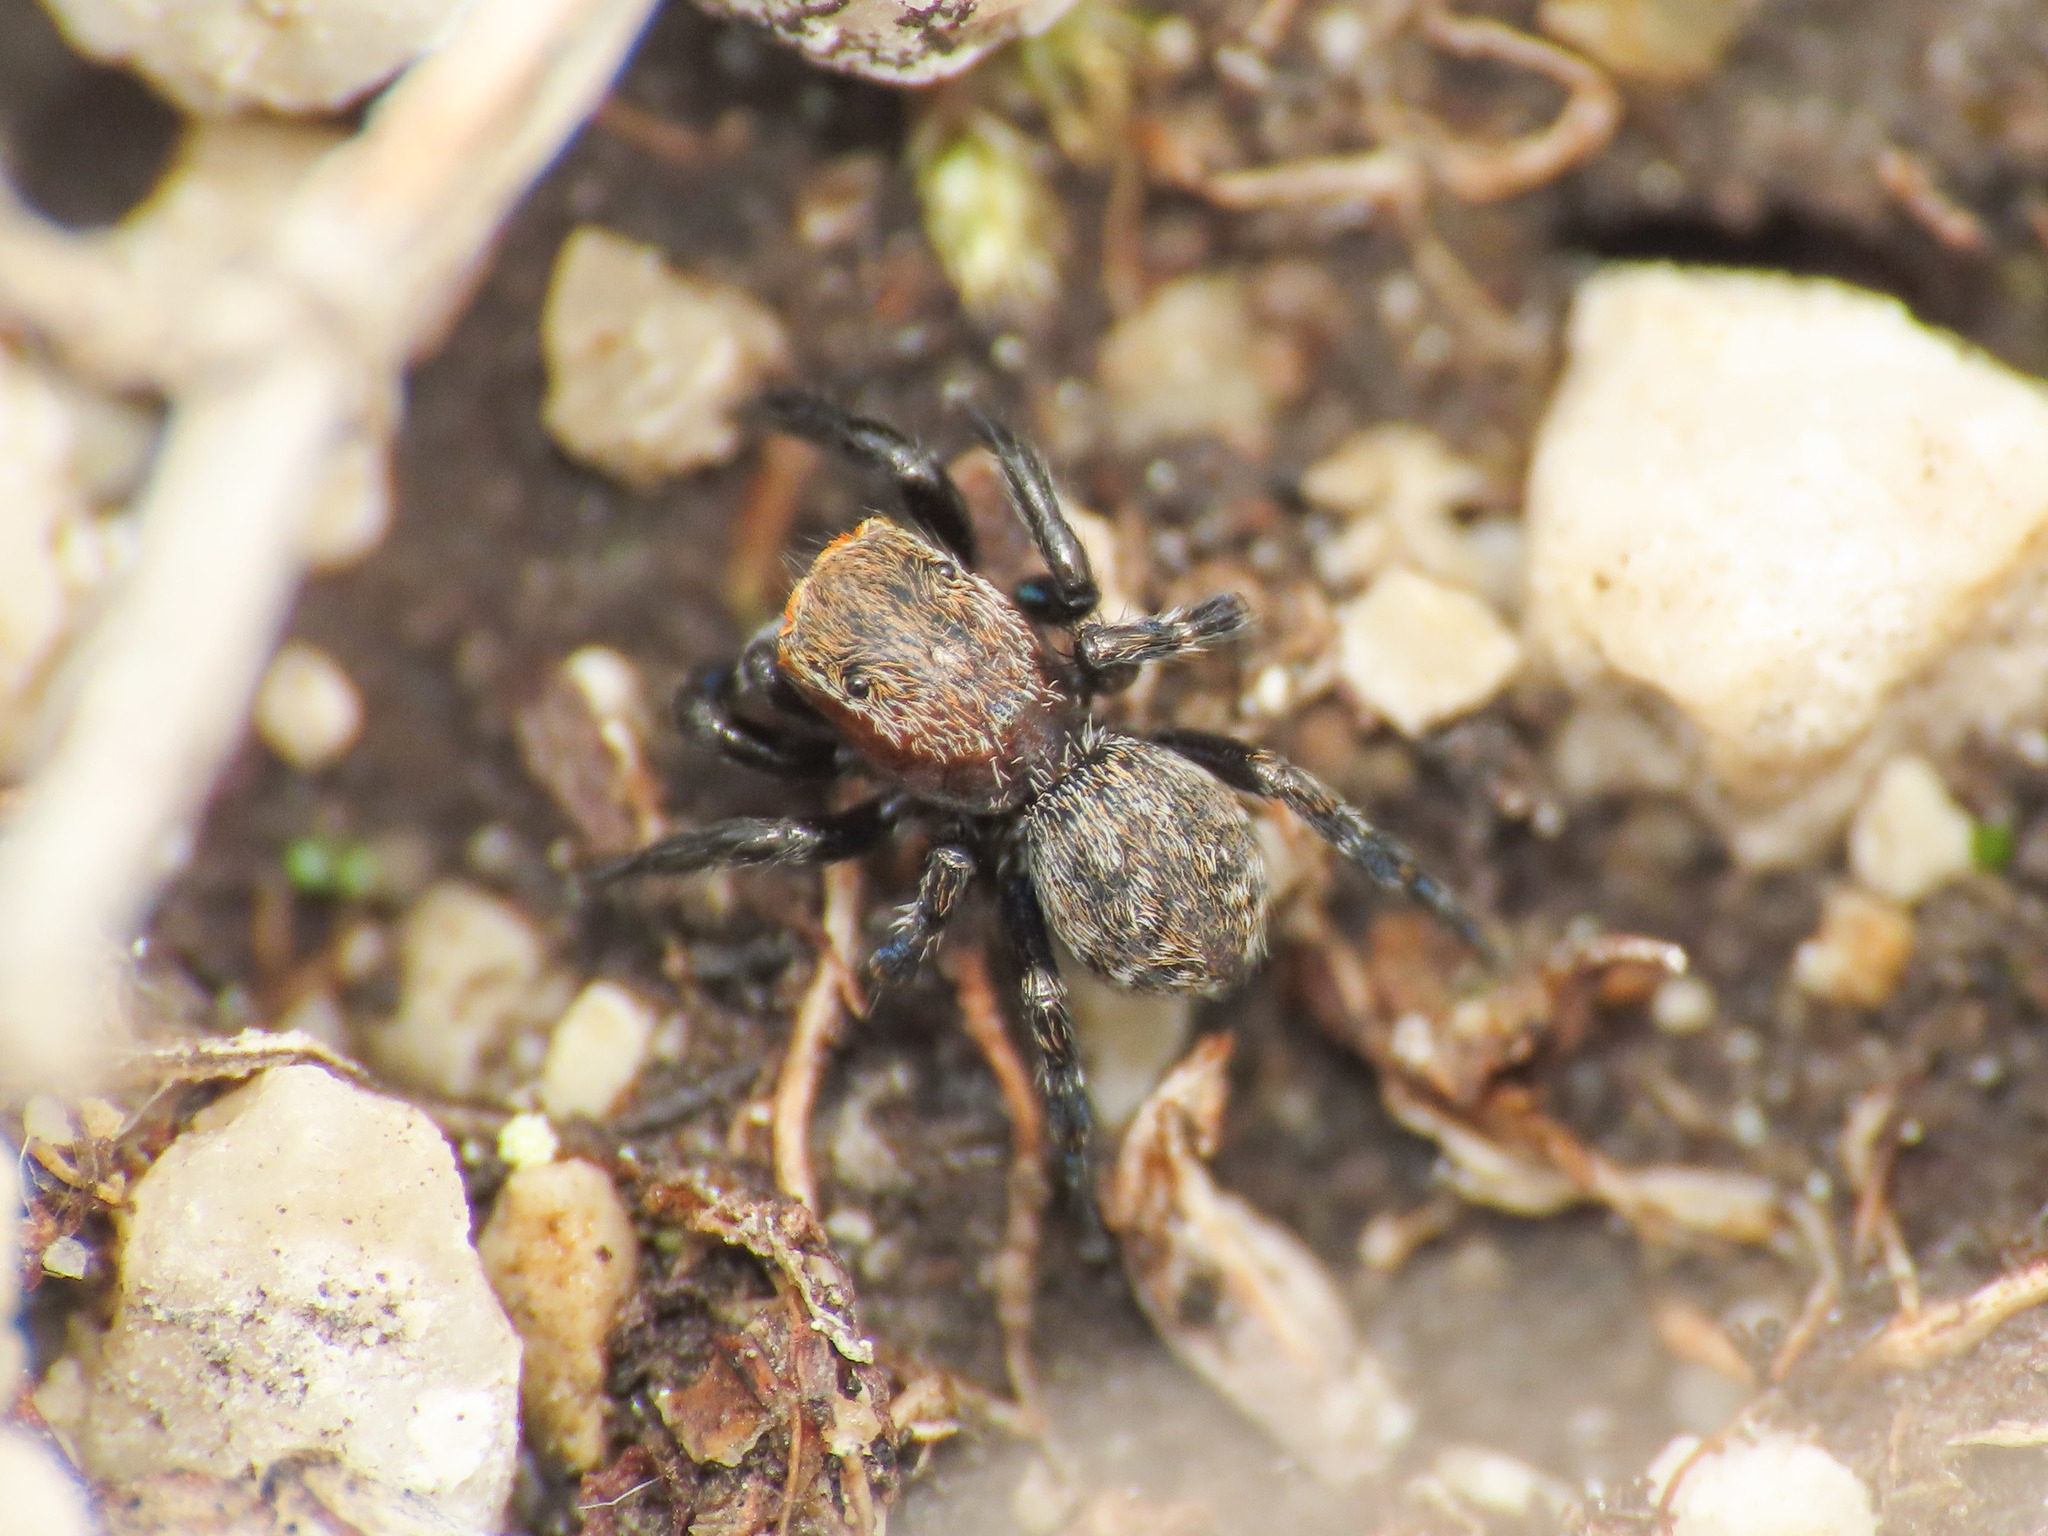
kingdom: Animalia
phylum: Arthropoda
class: Arachnida
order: Araneae
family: Salticidae
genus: Talavera
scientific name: Talavera petrensis
